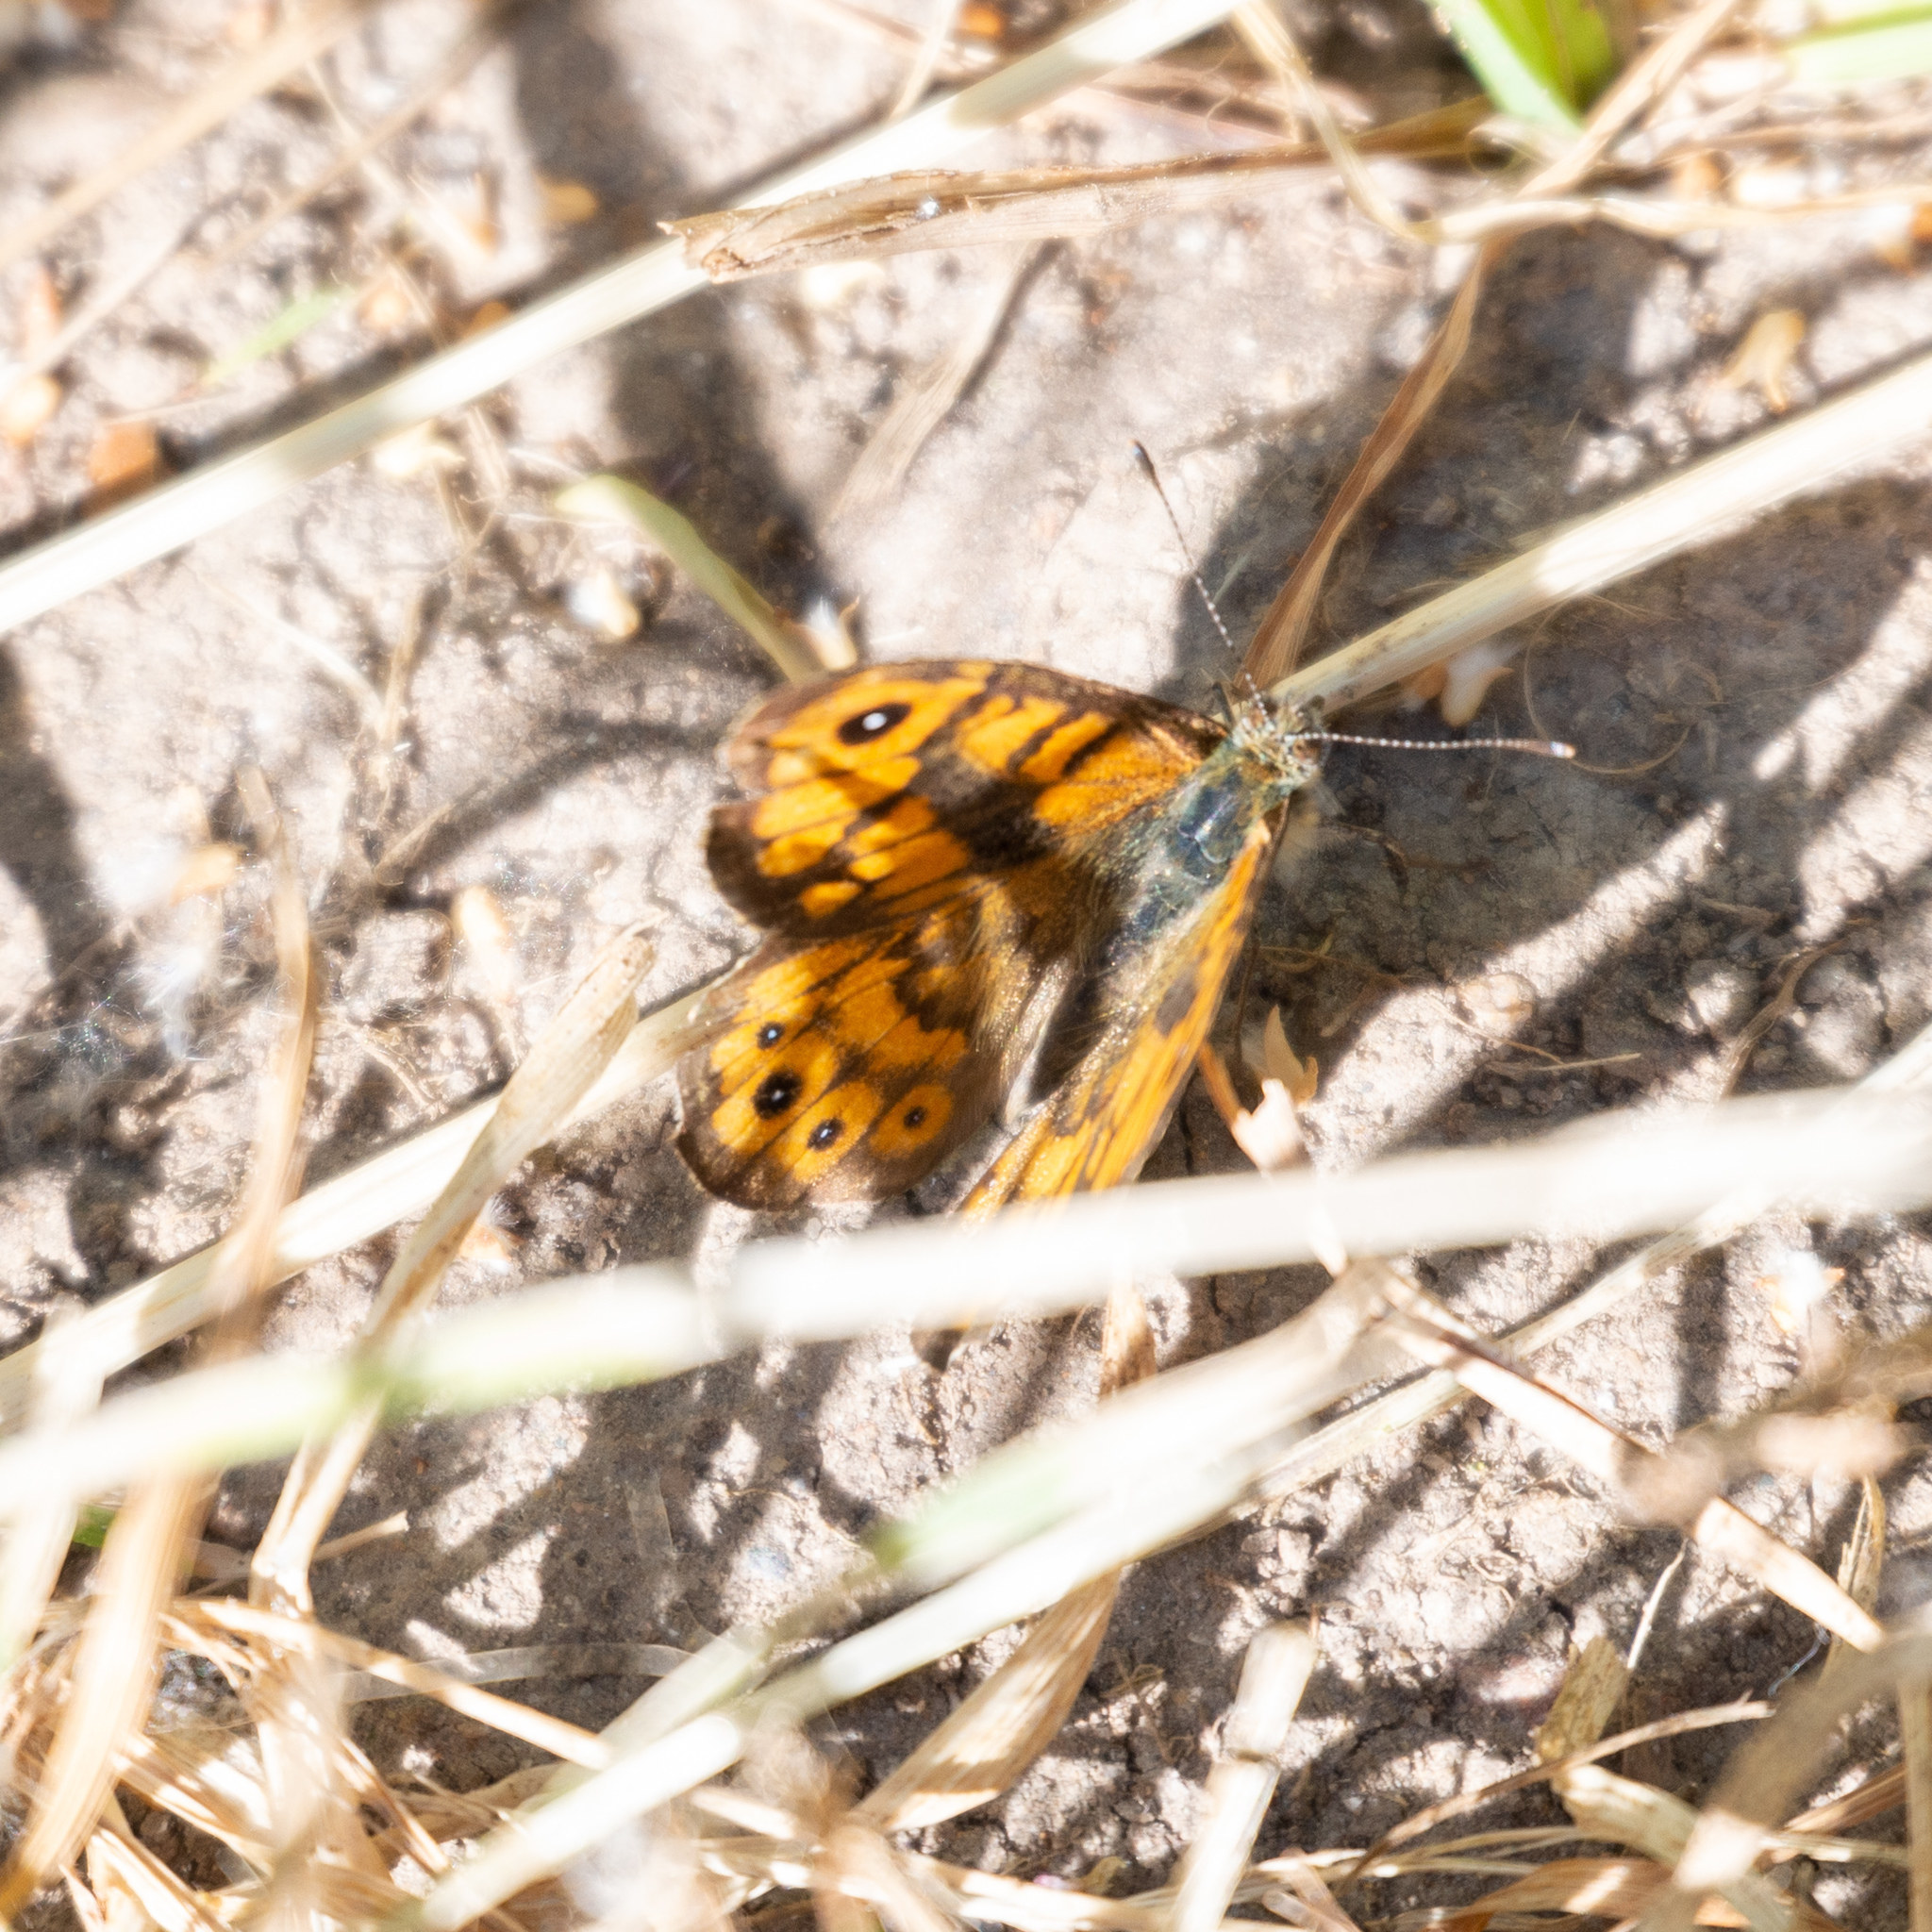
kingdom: Animalia
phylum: Arthropoda
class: Insecta
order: Lepidoptera
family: Nymphalidae
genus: Pararge
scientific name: Pararge Lasiommata megera
